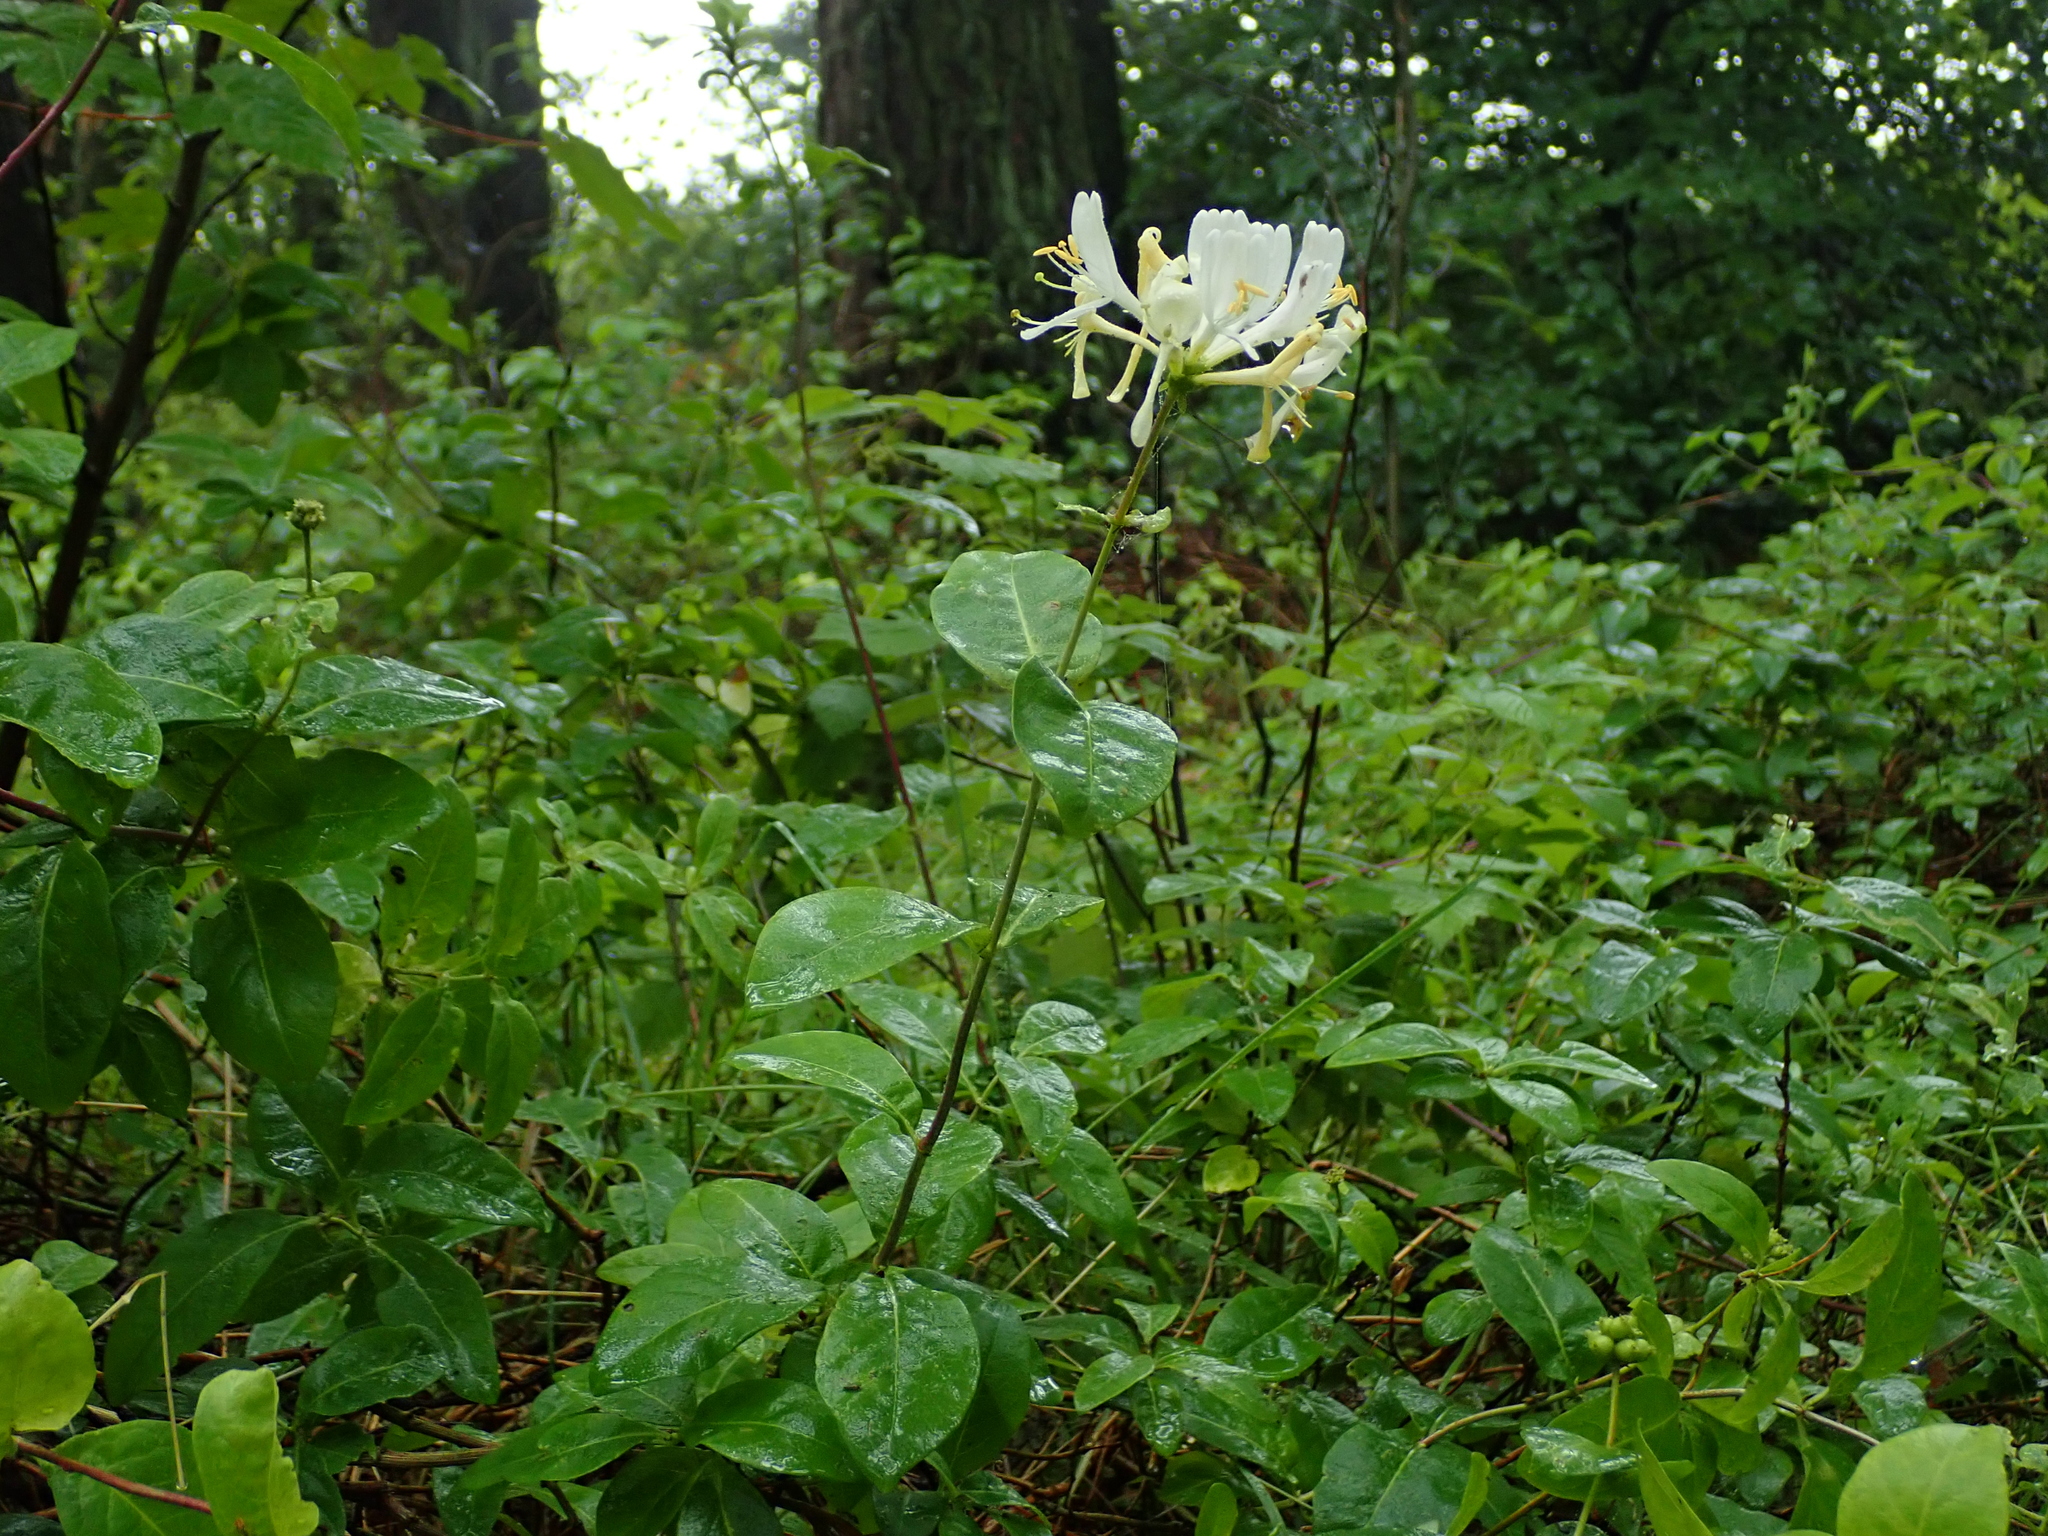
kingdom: Plantae
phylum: Tracheophyta
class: Magnoliopsida
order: Dipsacales
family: Caprifoliaceae
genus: Lonicera
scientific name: Lonicera periclymenum
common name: European honeysuckle
